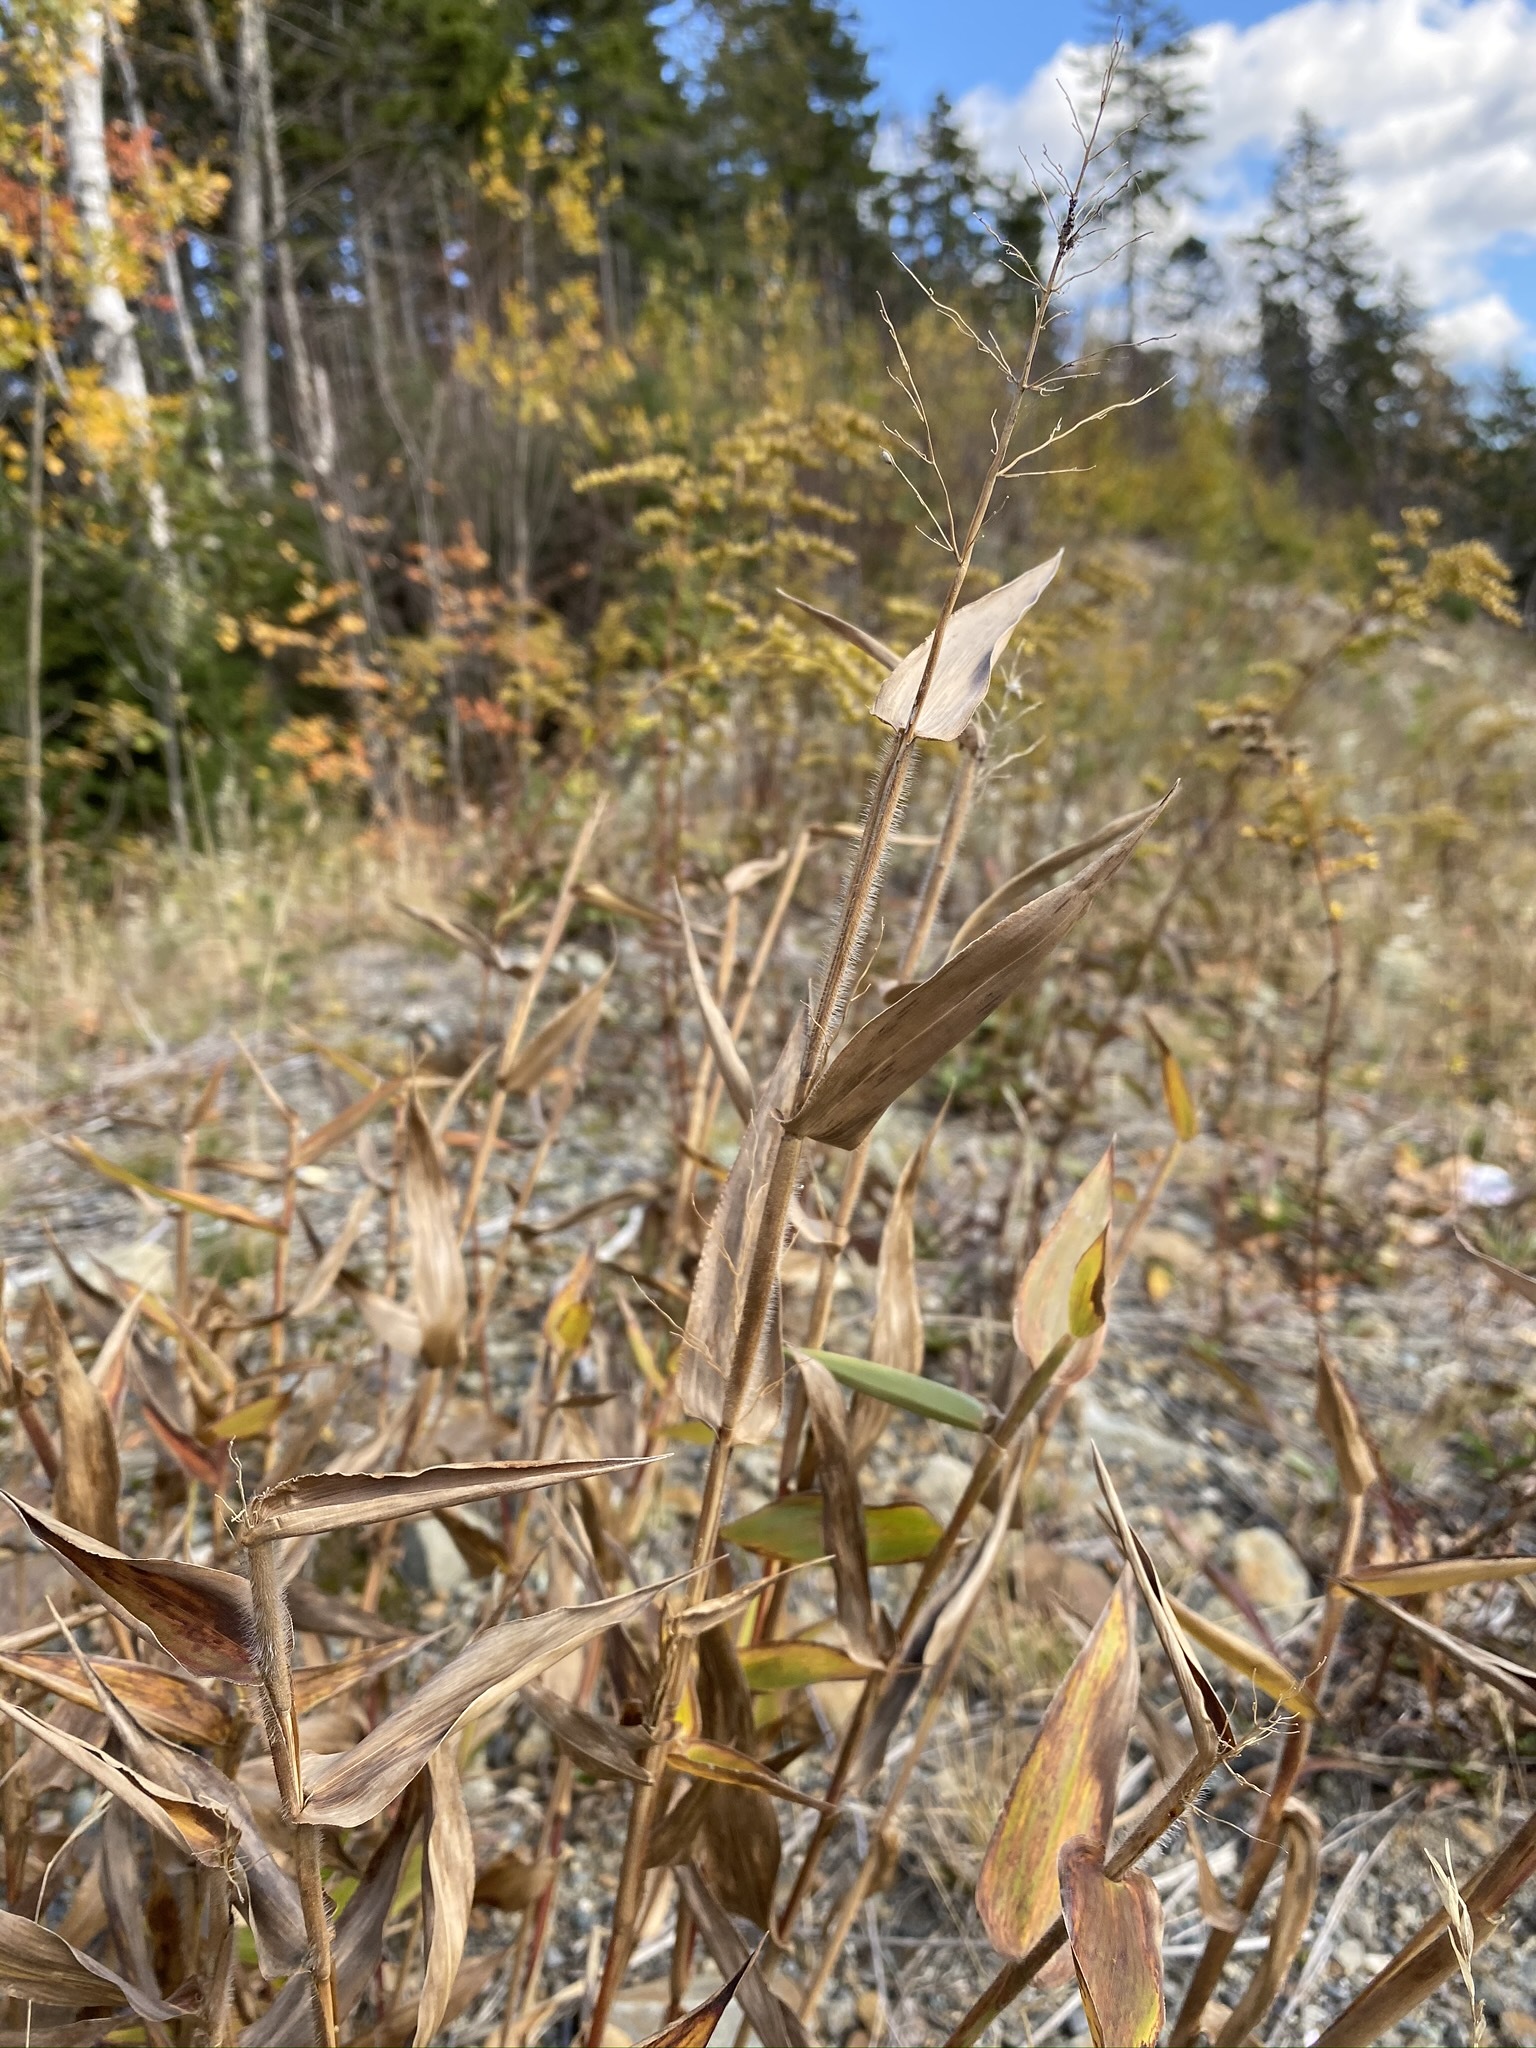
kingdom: Plantae
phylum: Tracheophyta
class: Liliopsida
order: Poales
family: Poaceae
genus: Dichanthelium
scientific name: Dichanthelium clandestinum
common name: Deer-tongue grass
